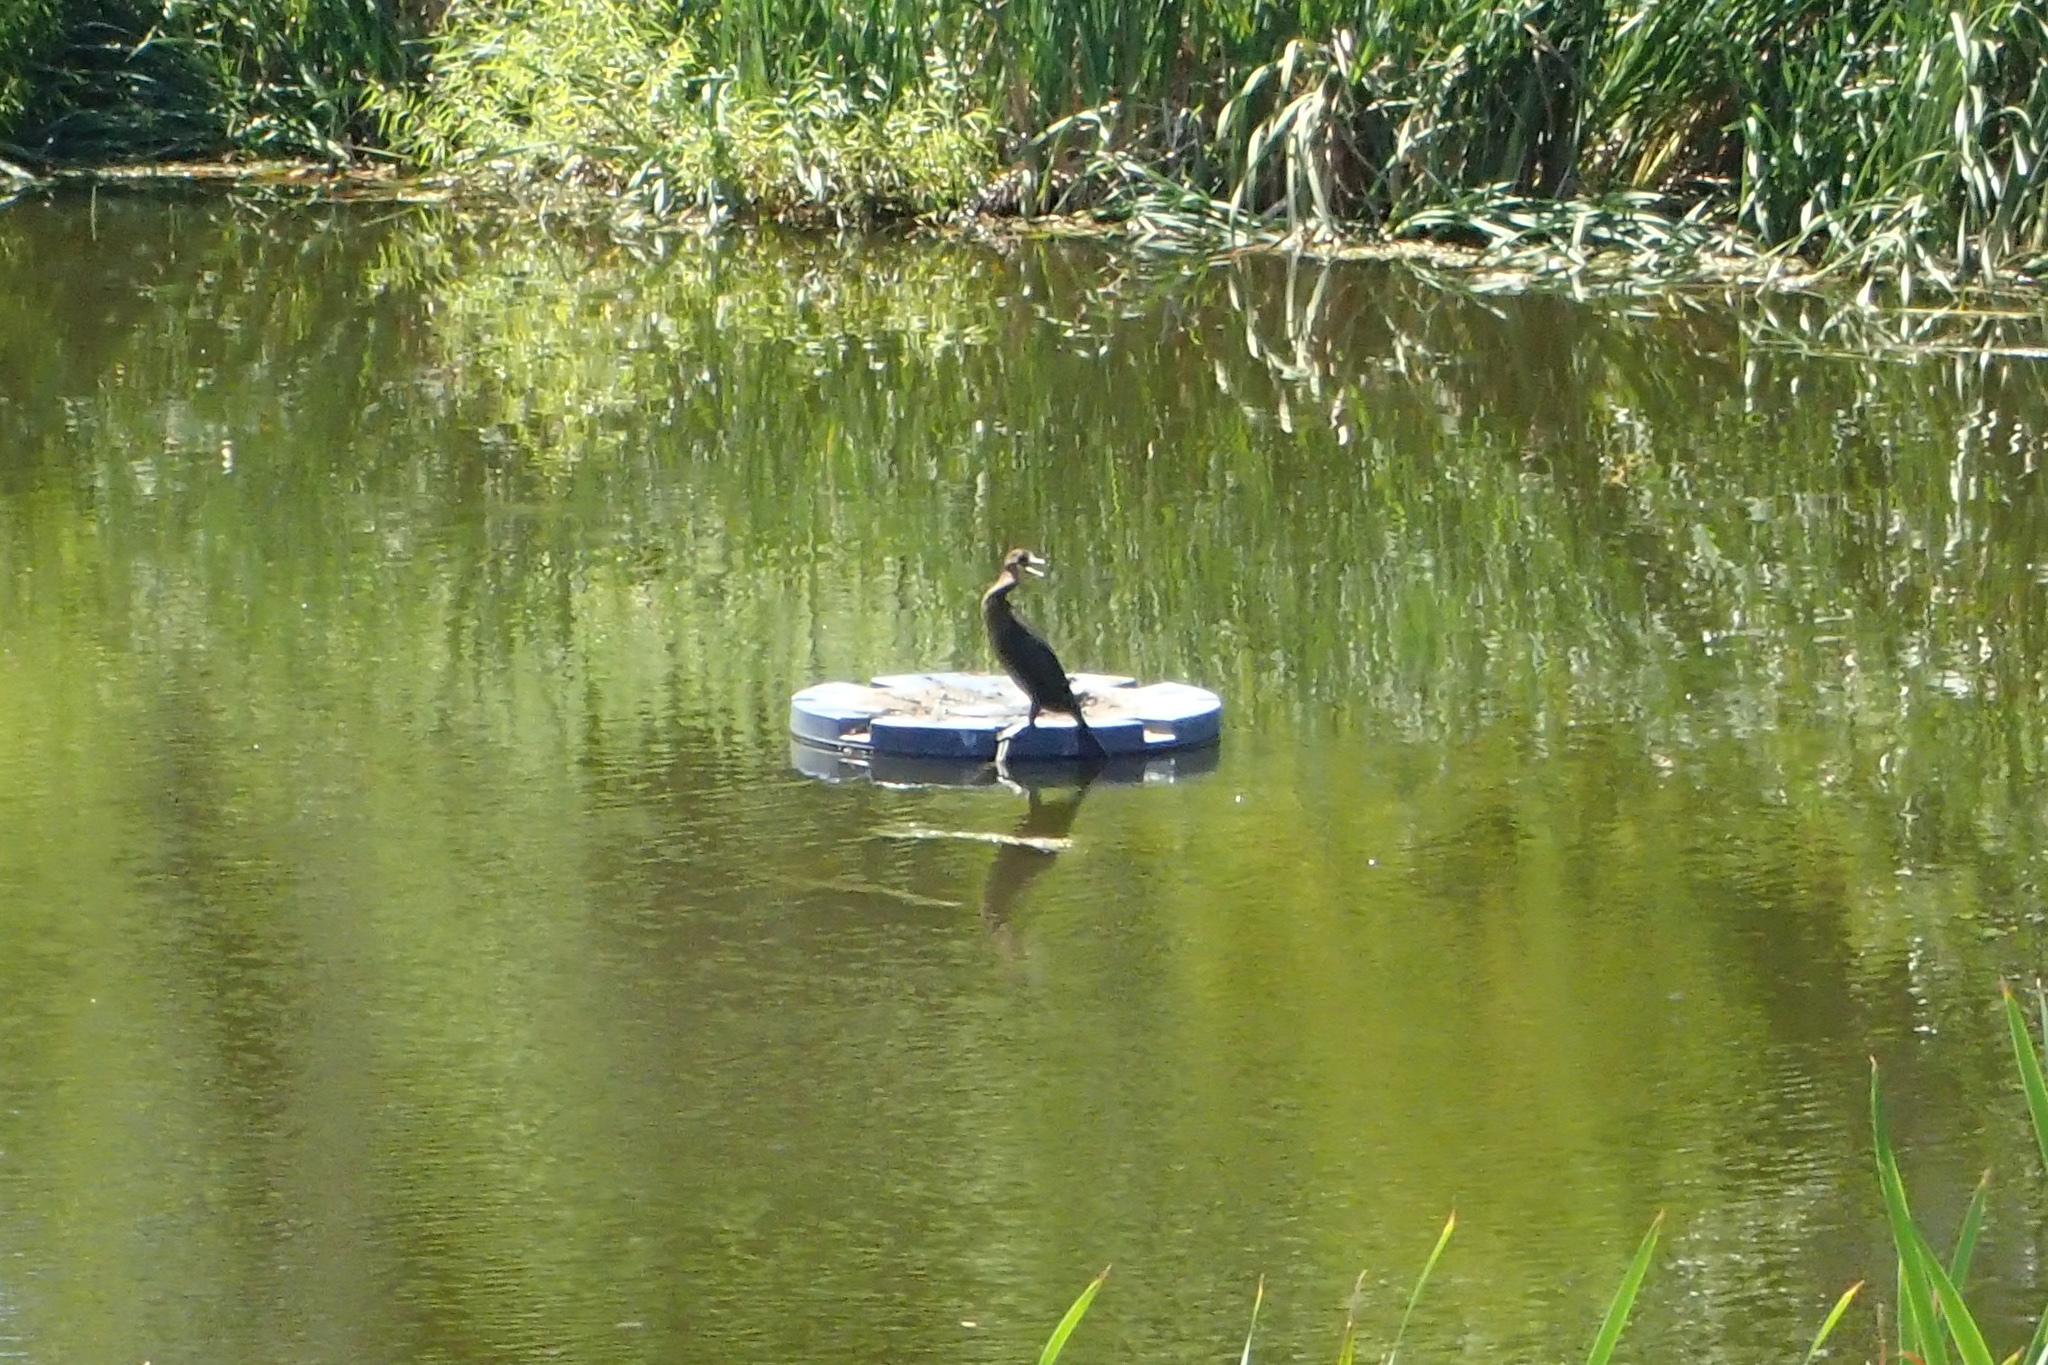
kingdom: Animalia
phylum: Chordata
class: Aves
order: Suliformes
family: Phalacrocoracidae
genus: Phalacrocorax
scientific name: Phalacrocorax auritus
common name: Double-crested cormorant
